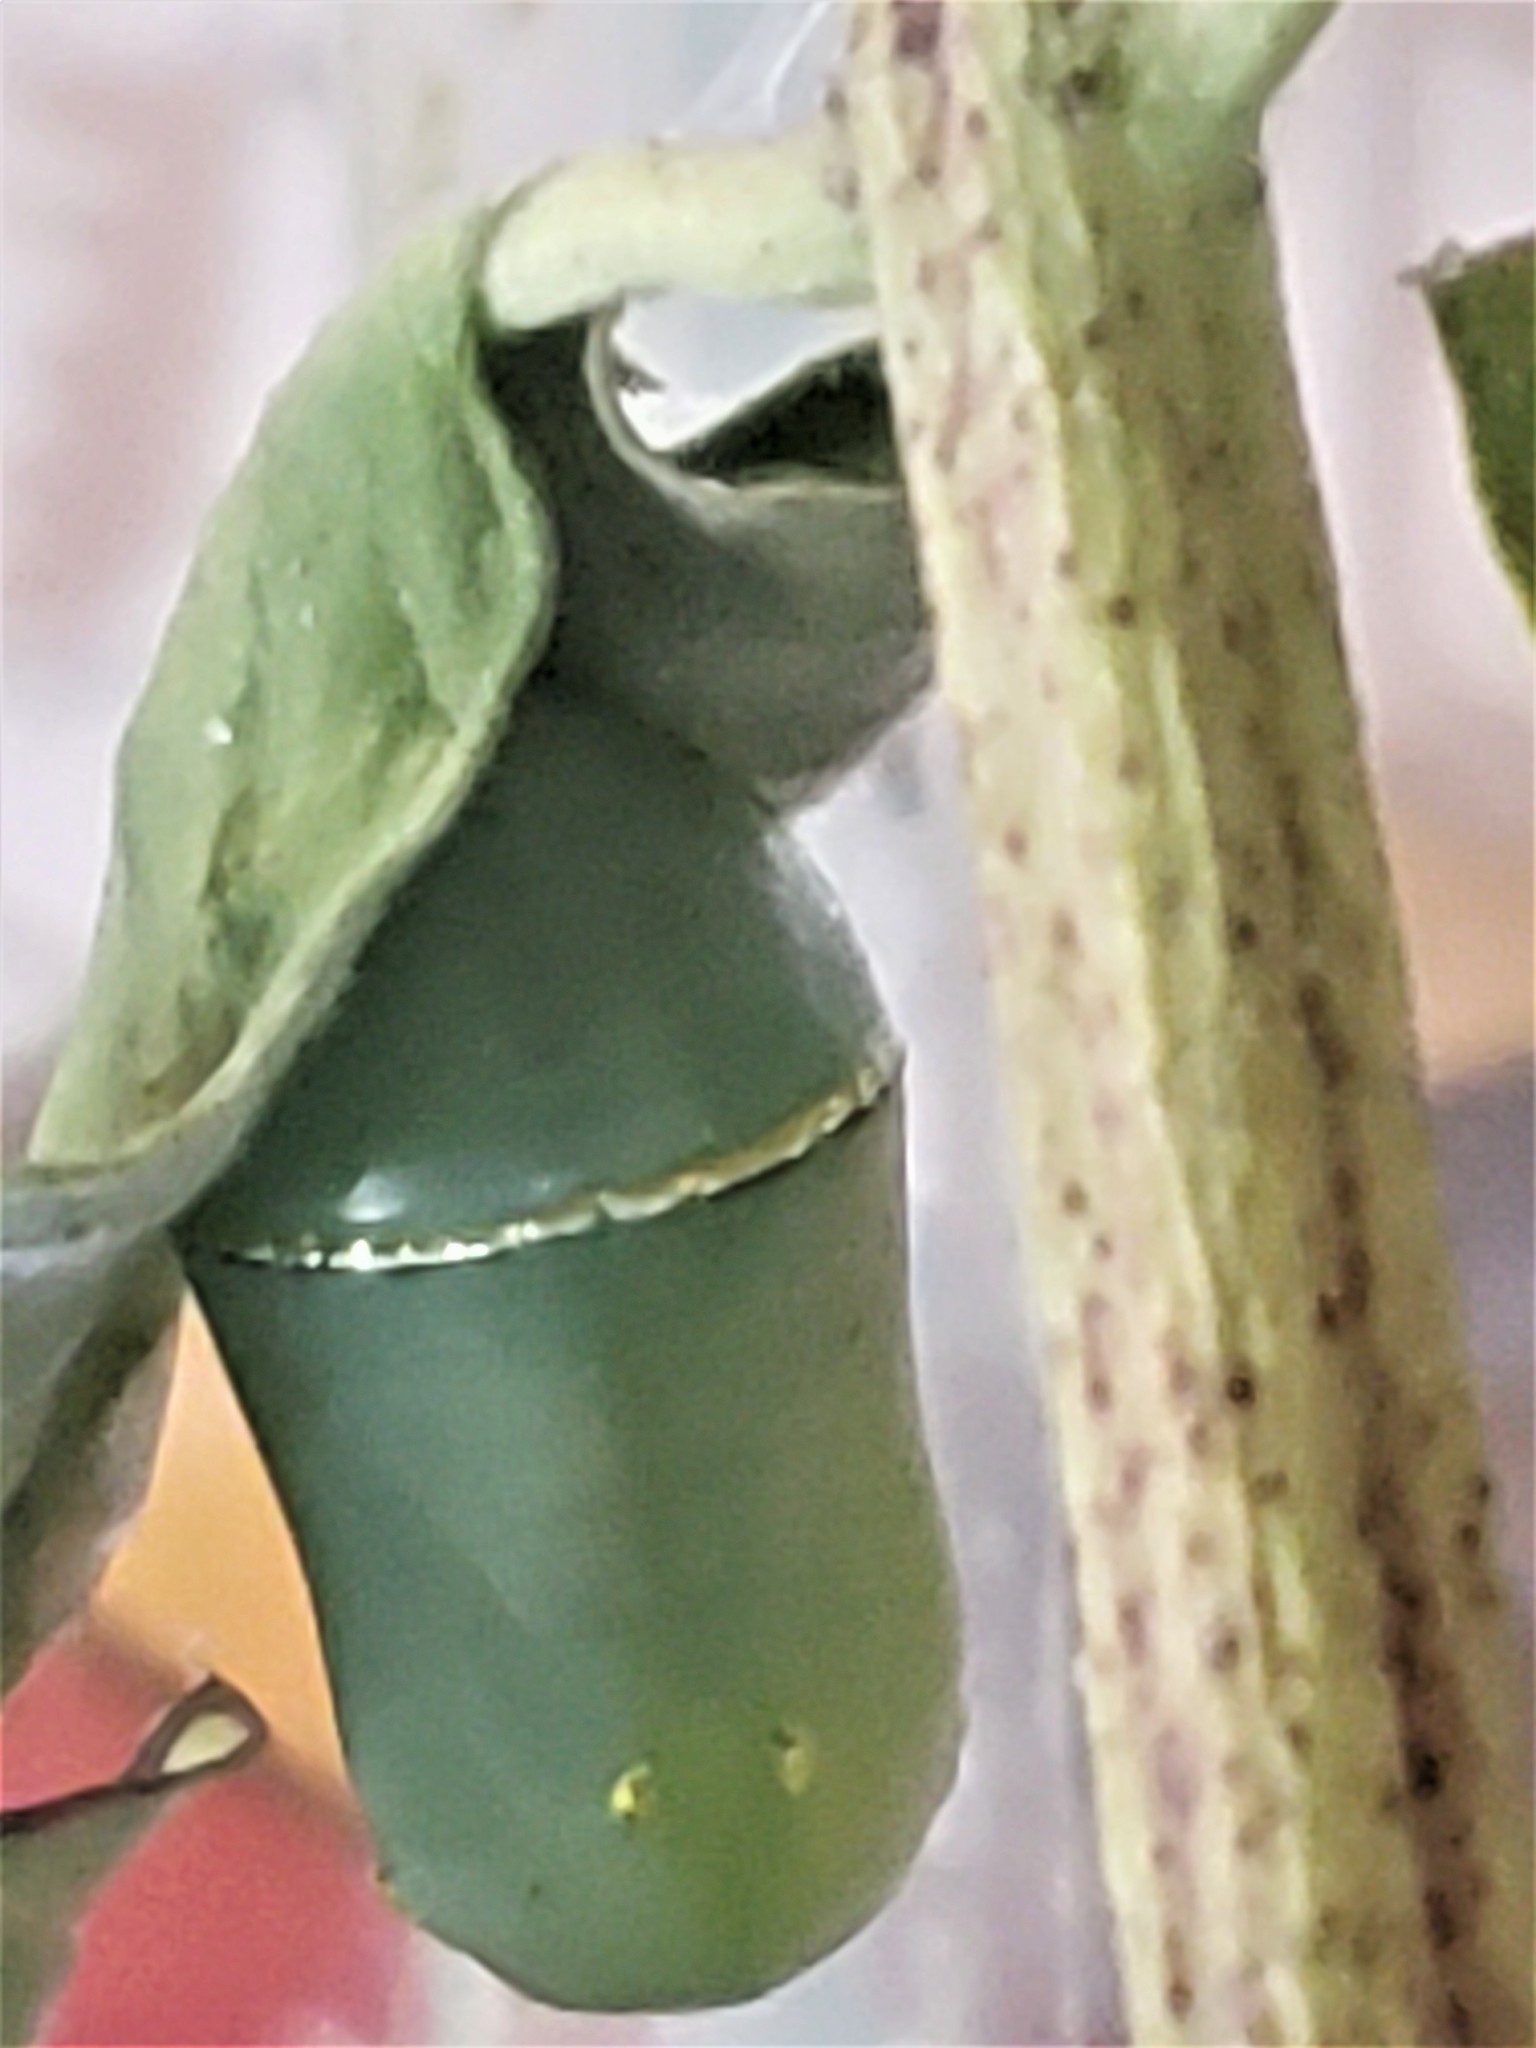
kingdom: Animalia
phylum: Arthropoda
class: Insecta
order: Lepidoptera
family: Nymphalidae
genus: Danaus
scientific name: Danaus plexippus
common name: Monarch
